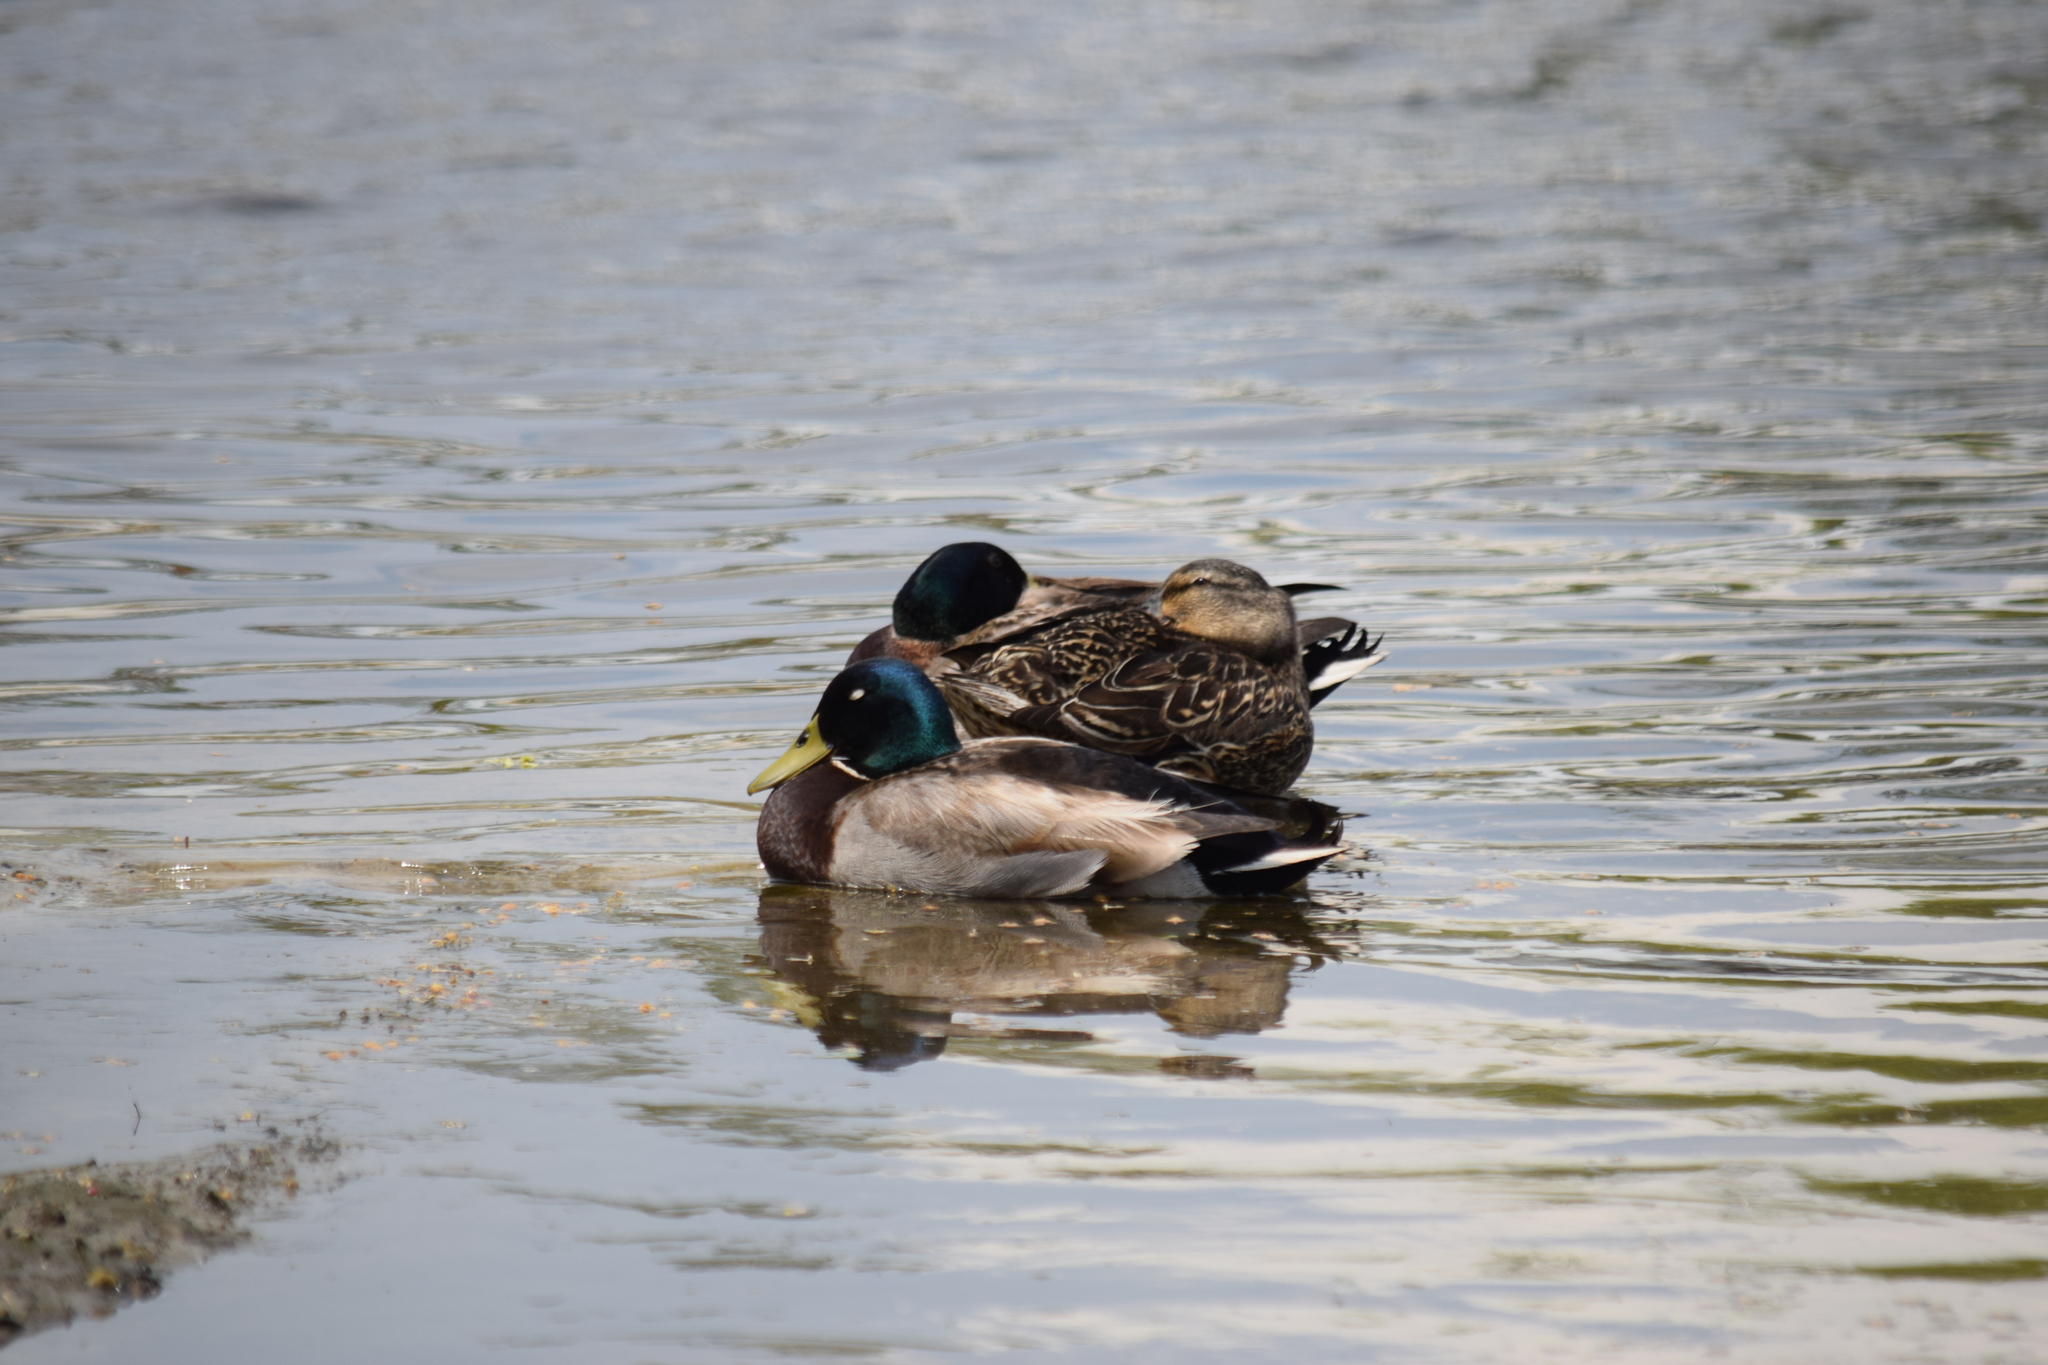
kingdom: Animalia
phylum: Chordata
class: Aves
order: Anseriformes
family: Anatidae
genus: Anas
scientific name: Anas platyrhynchos
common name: Mallard
